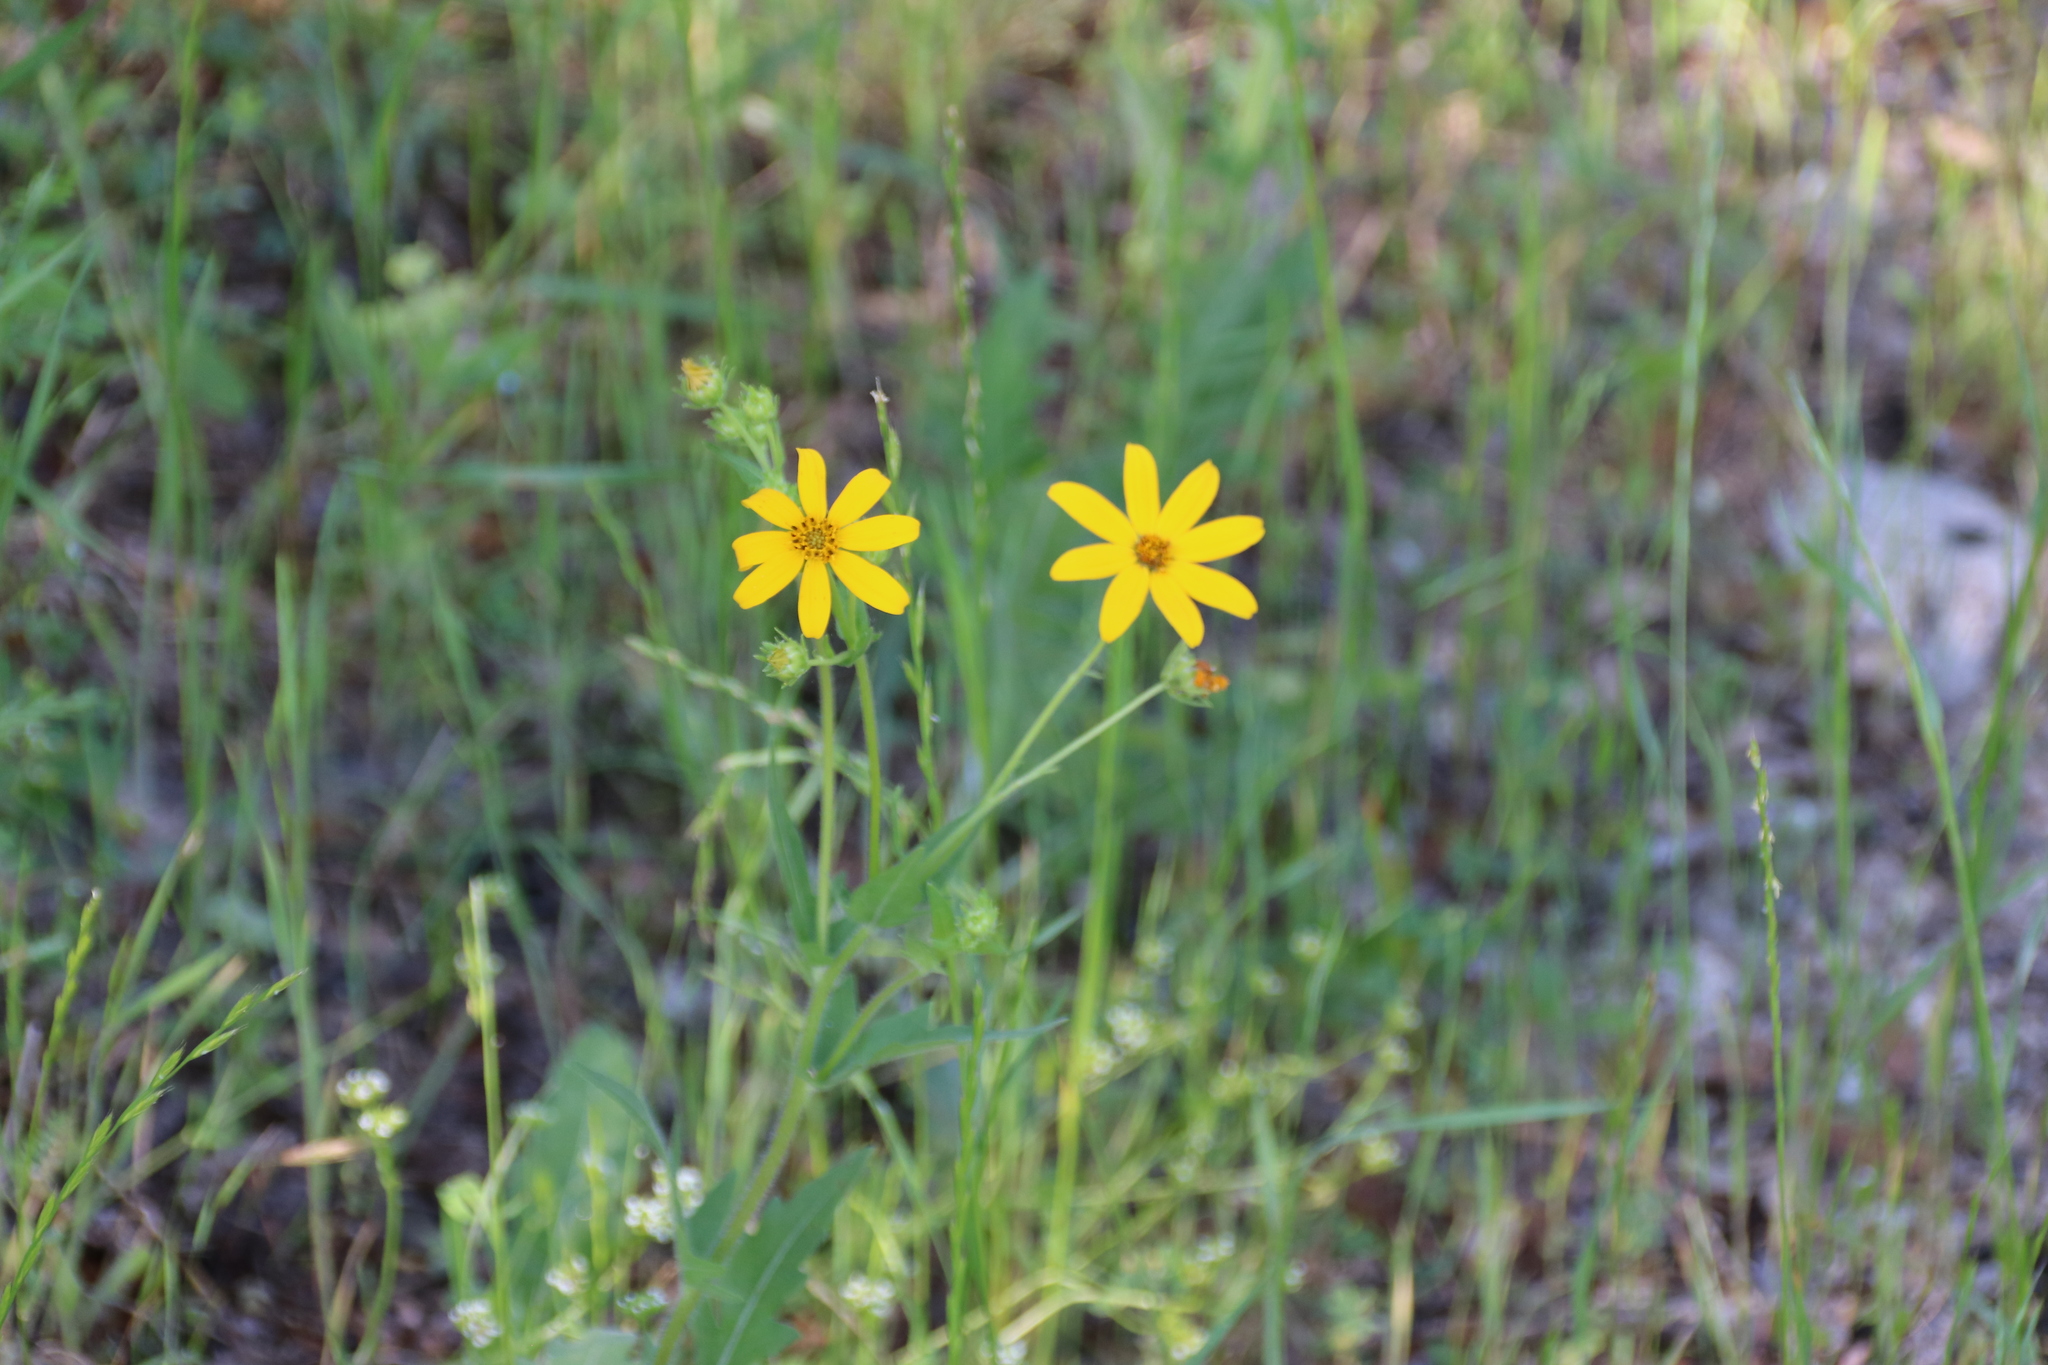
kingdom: Plantae
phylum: Tracheophyta
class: Magnoliopsida
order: Asterales
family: Asteraceae
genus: Engelmannia
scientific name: Engelmannia peristenia
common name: Engelmann's daisy
